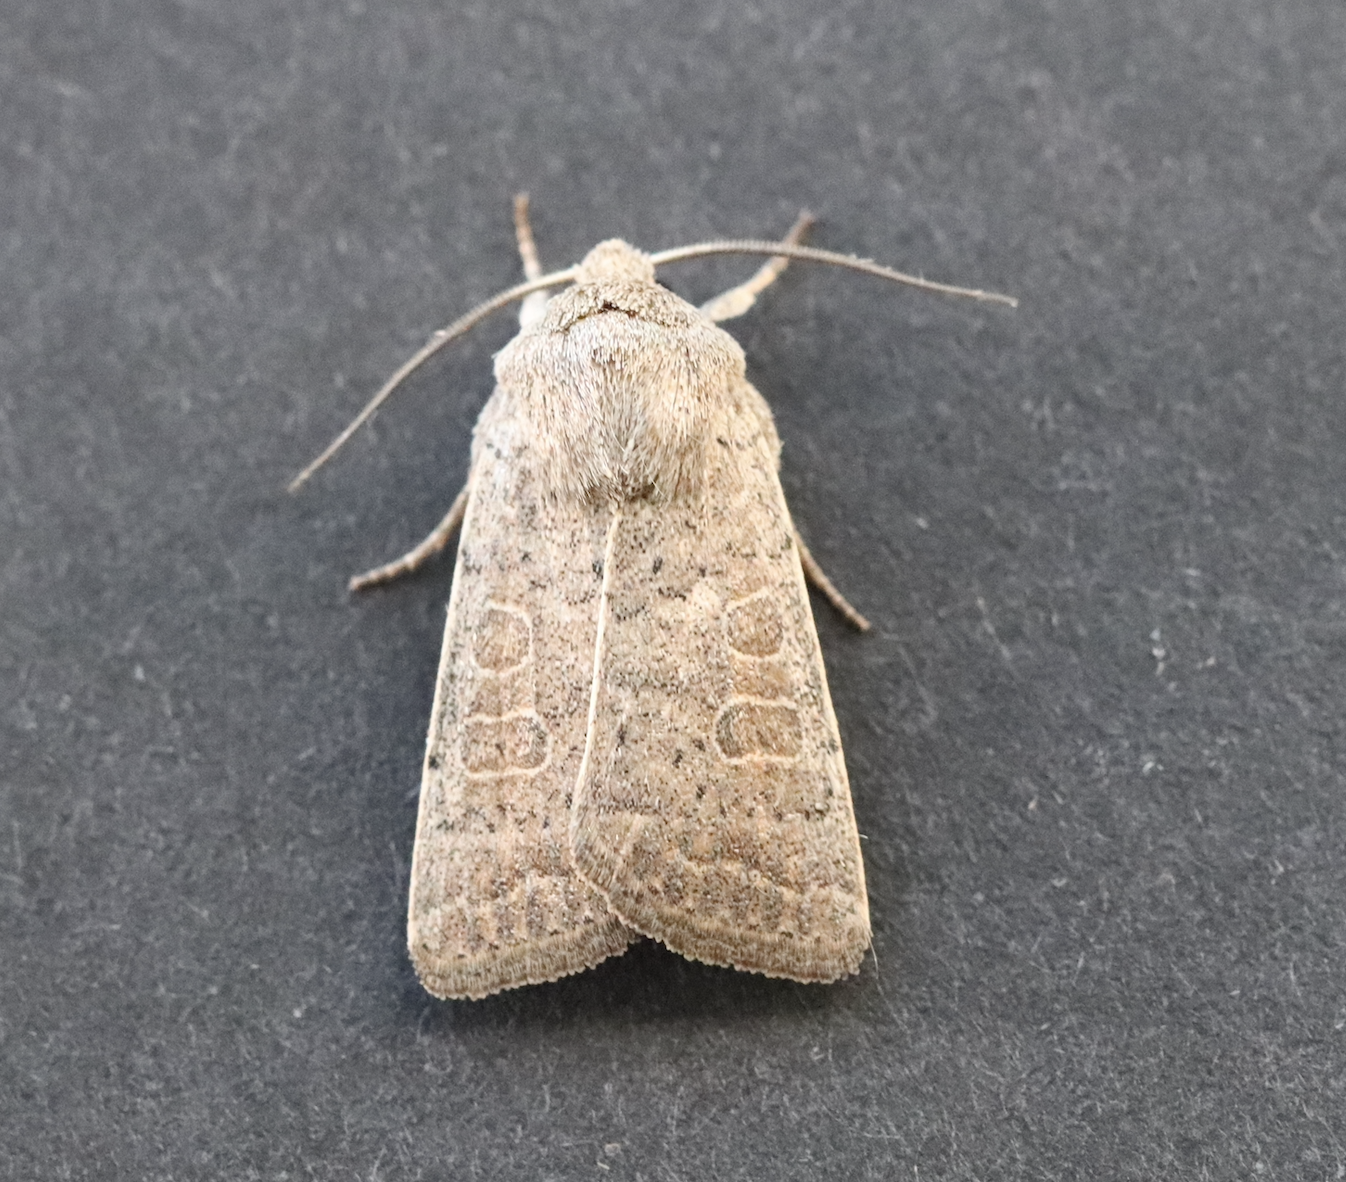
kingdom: Animalia
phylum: Arthropoda
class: Insecta
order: Lepidoptera
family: Noctuidae
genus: Hoplodrina
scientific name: Hoplodrina ambigua
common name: Vine's rustic
